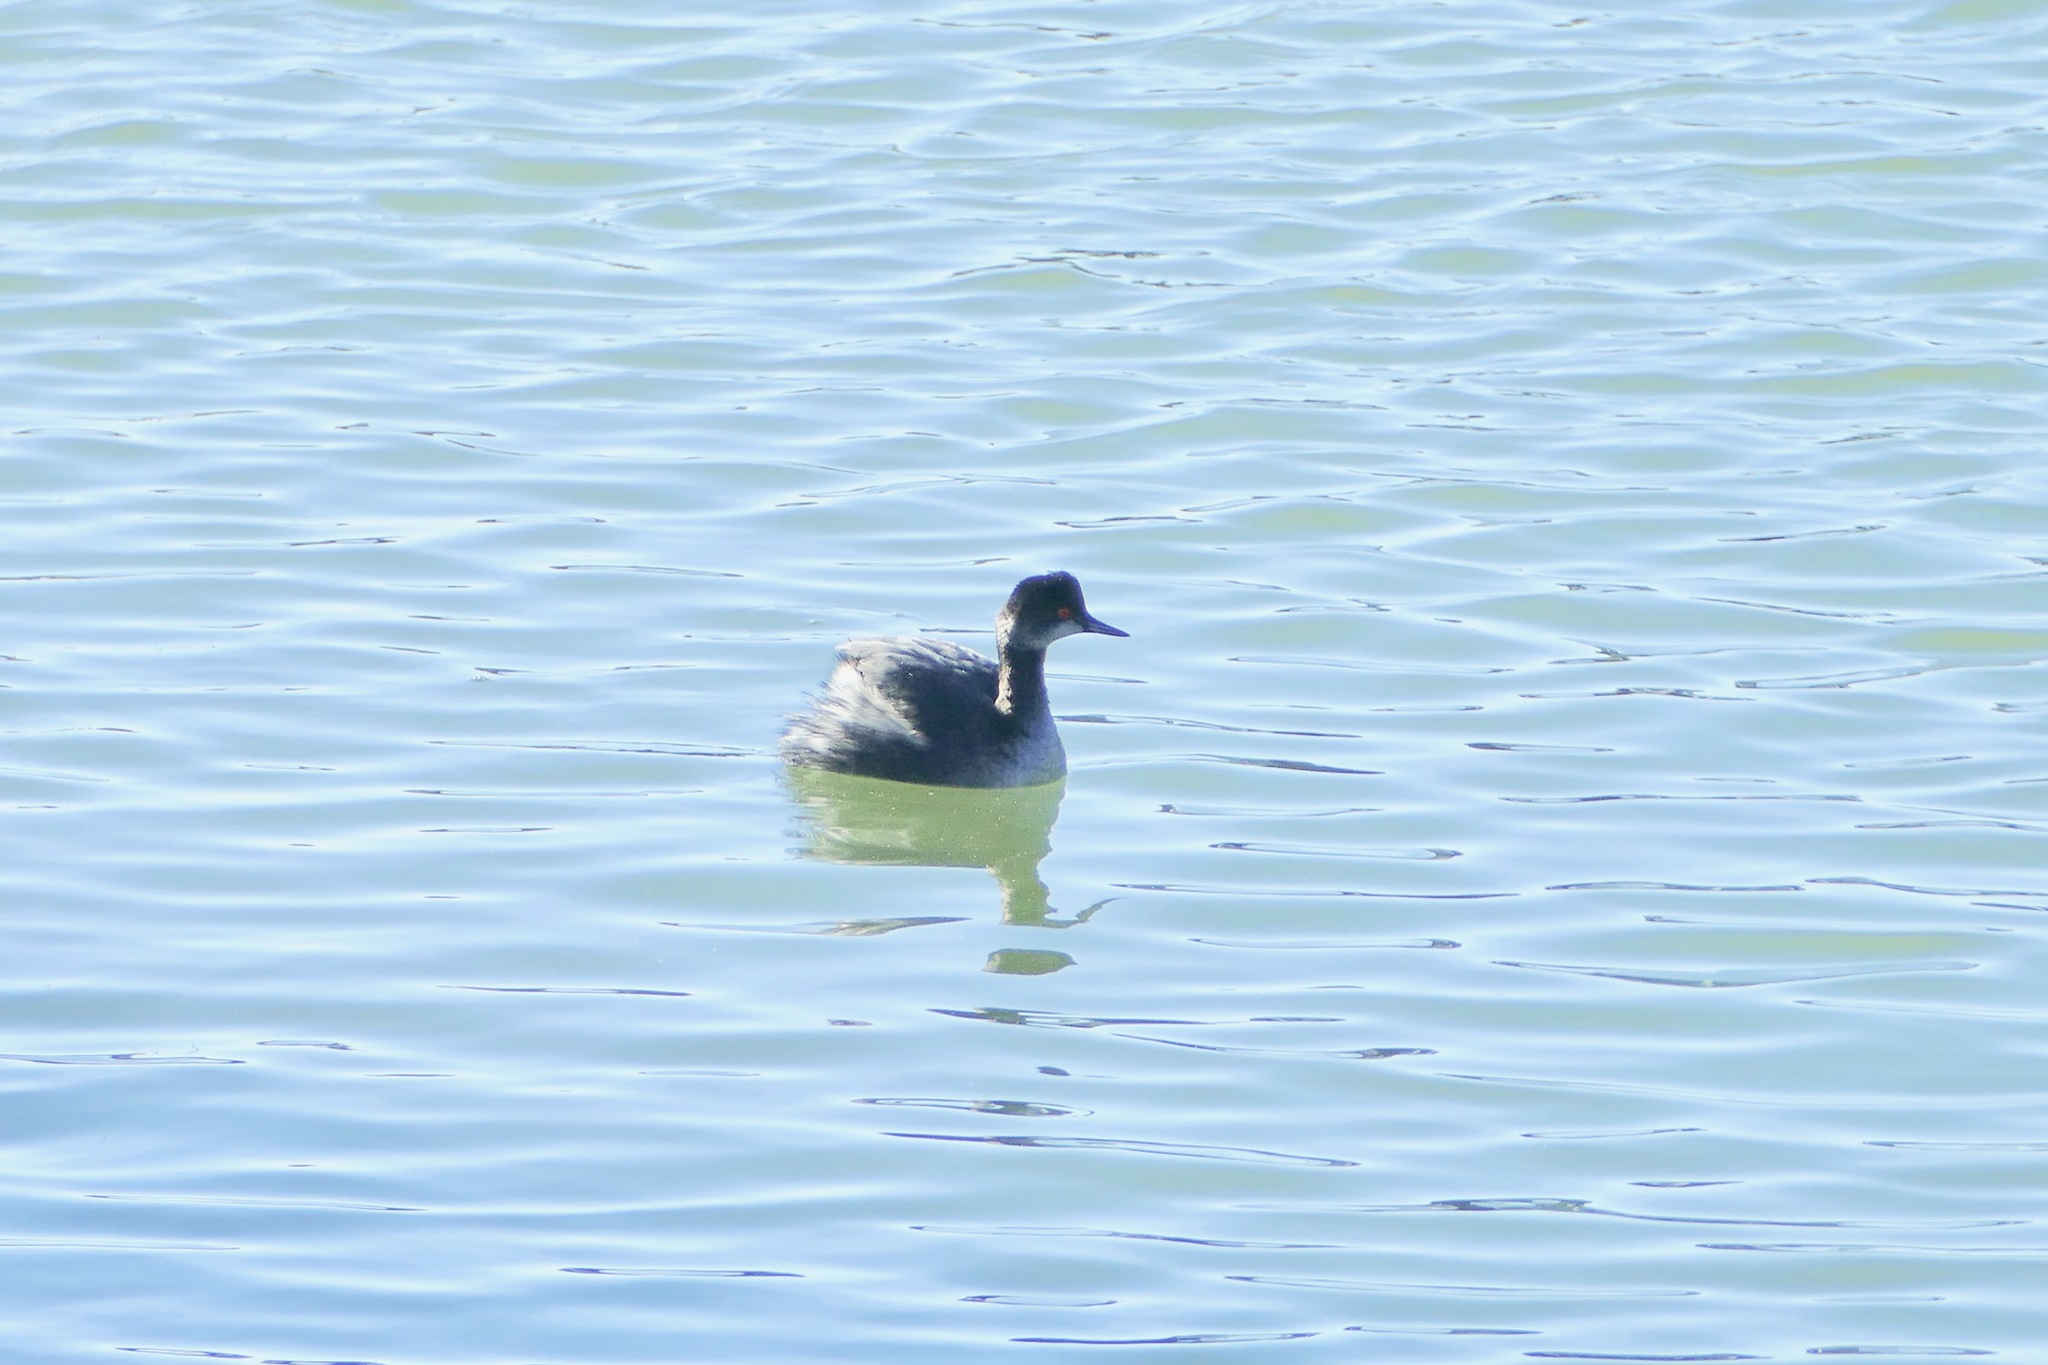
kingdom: Animalia
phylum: Chordata
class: Aves
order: Podicipediformes
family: Podicipedidae
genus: Podiceps
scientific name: Podiceps nigricollis
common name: Black-necked grebe
